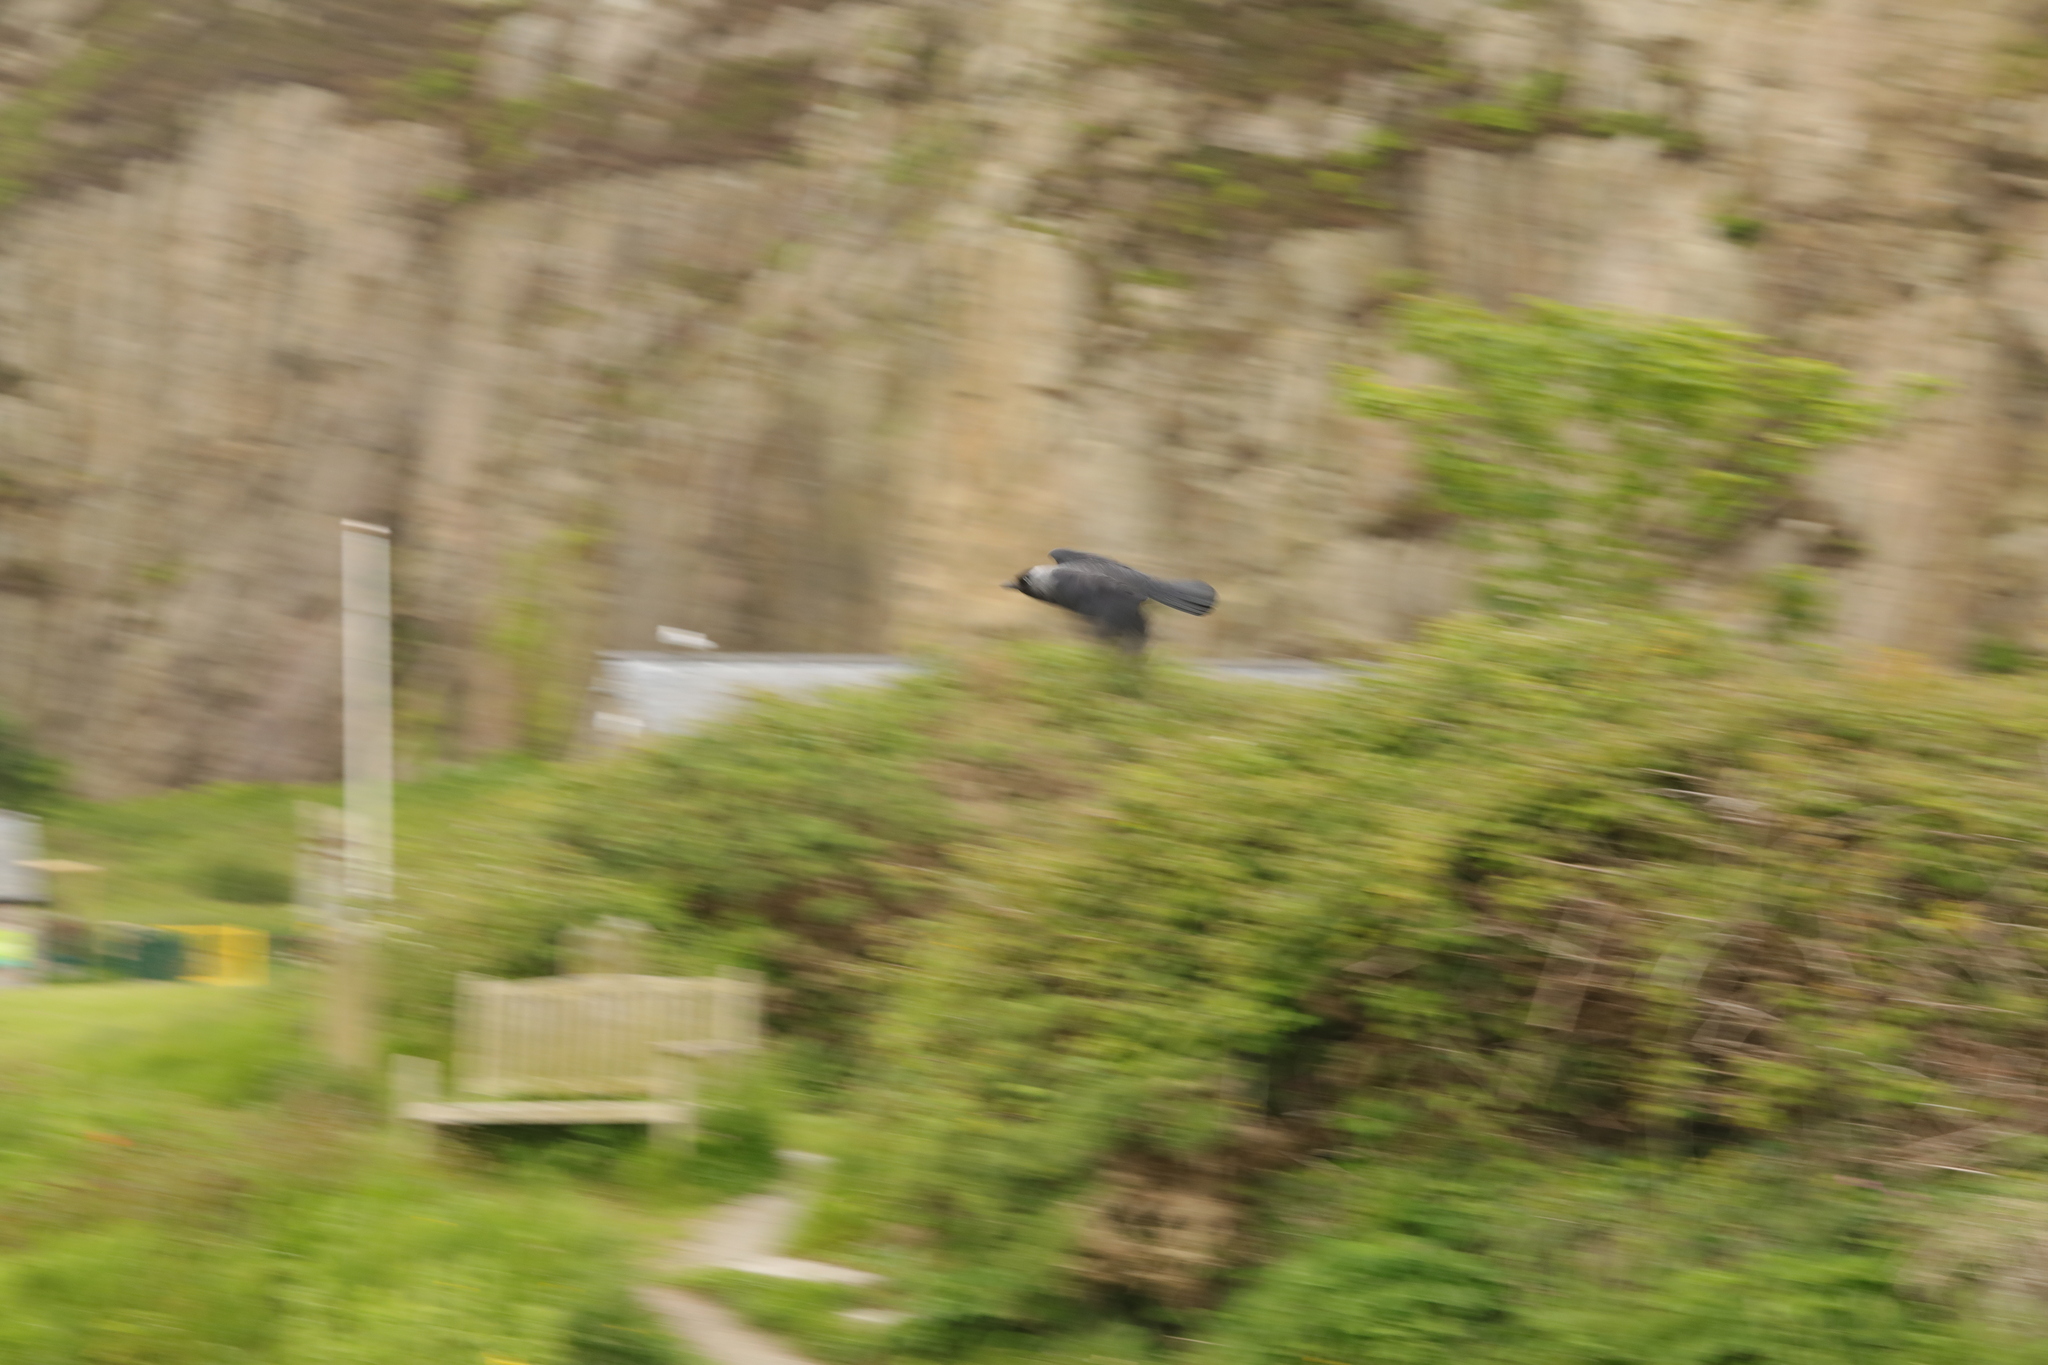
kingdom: Animalia
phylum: Chordata
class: Aves
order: Passeriformes
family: Corvidae
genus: Coloeus
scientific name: Coloeus monedula
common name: Western jackdaw
